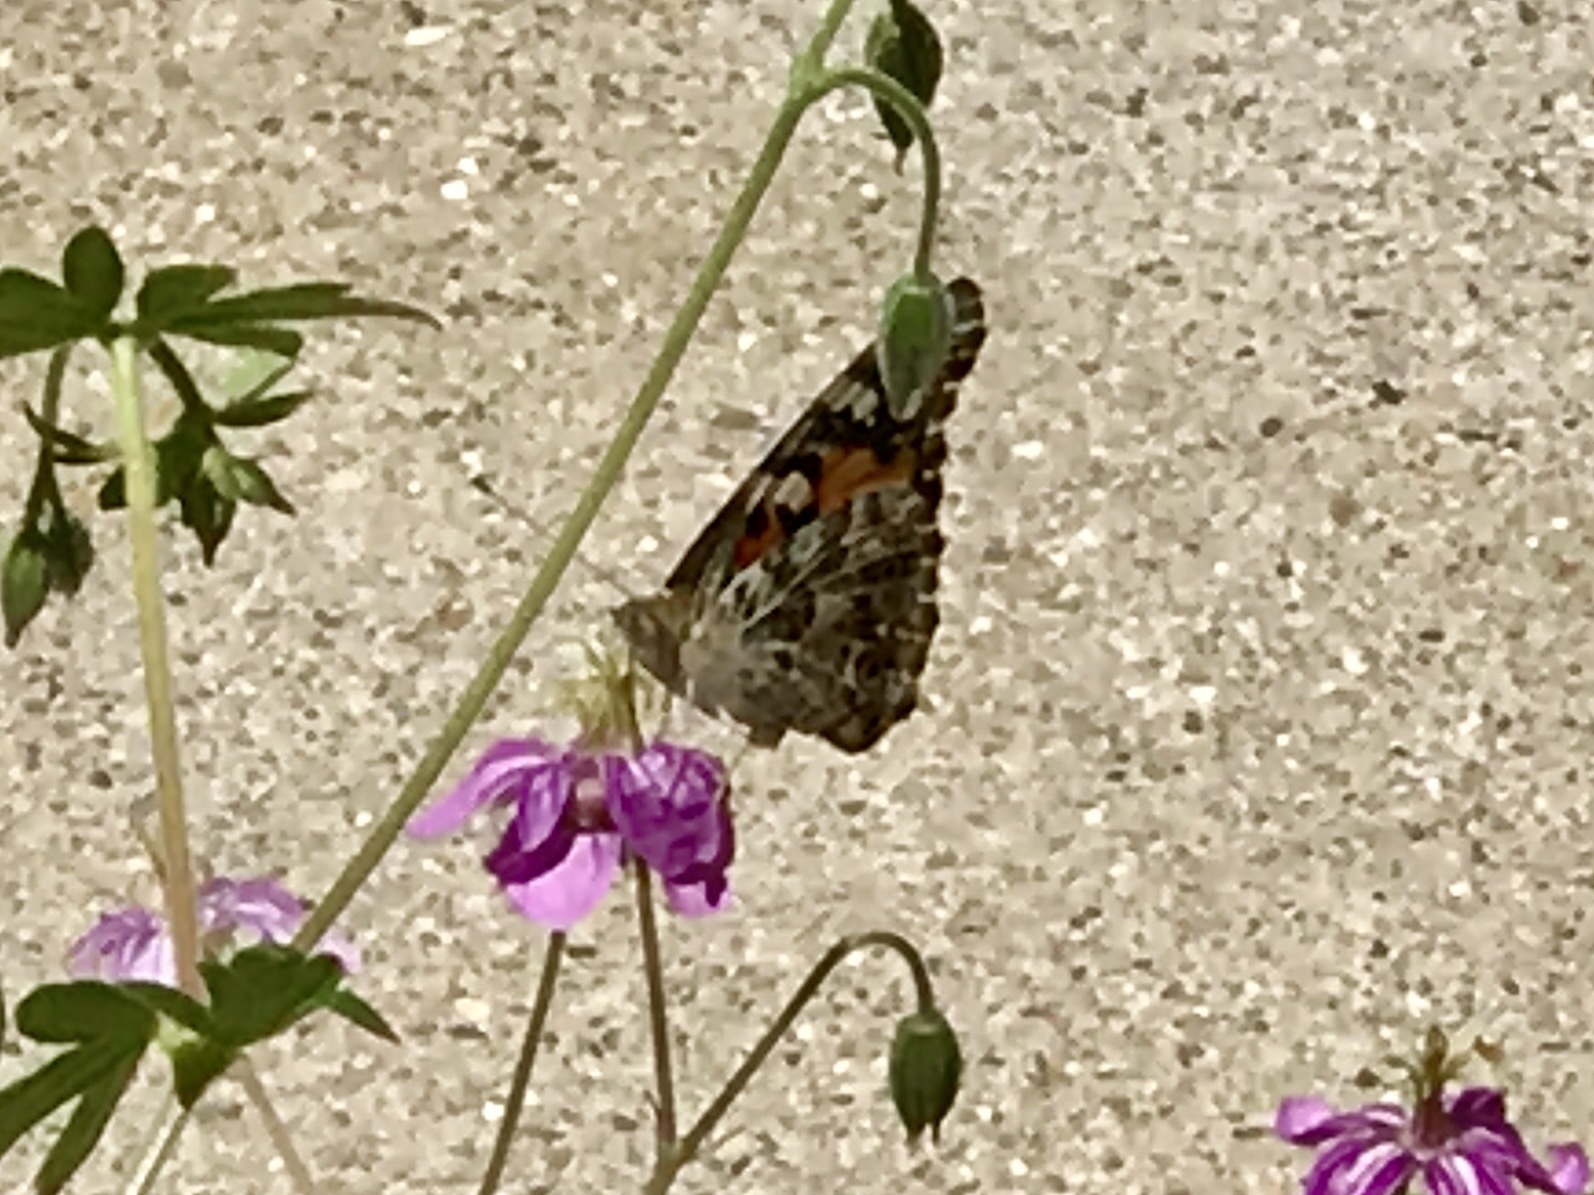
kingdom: Animalia
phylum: Arthropoda
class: Insecta
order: Lepidoptera
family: Nymphalidae
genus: Vanessa
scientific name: Vanessa cardui
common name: Painted lady
